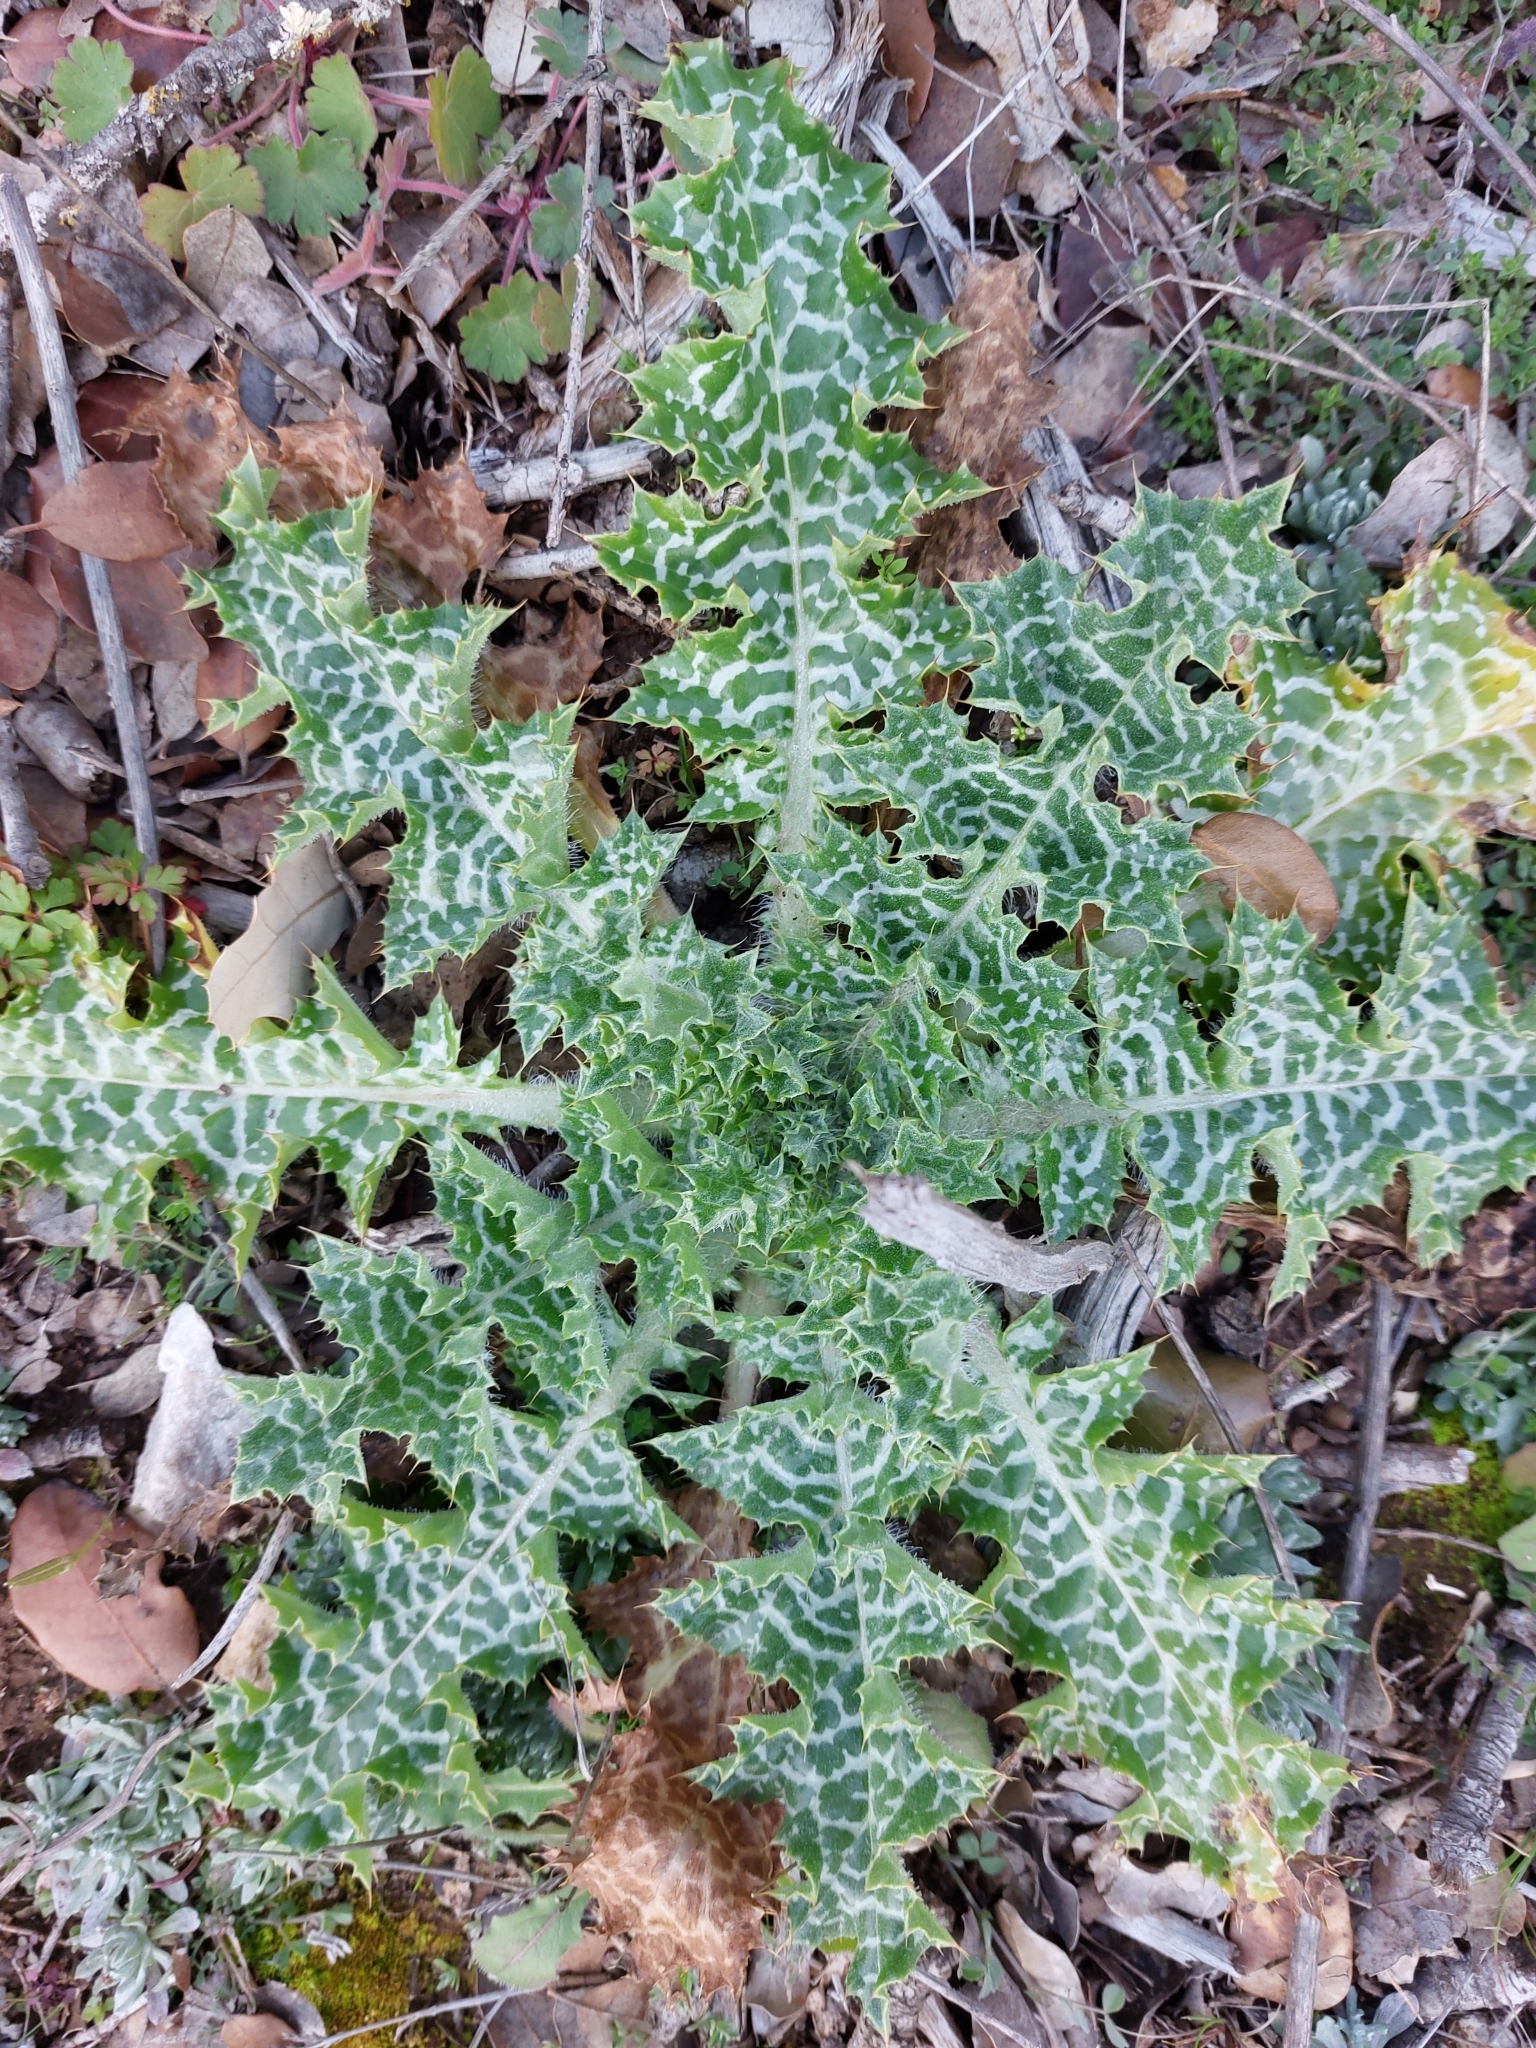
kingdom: Plantae
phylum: Tracheophyta
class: Magnoliopsida
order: Asterales
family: Asteraceae
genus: Silybum
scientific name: Silybum marianum
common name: Milk thistle
